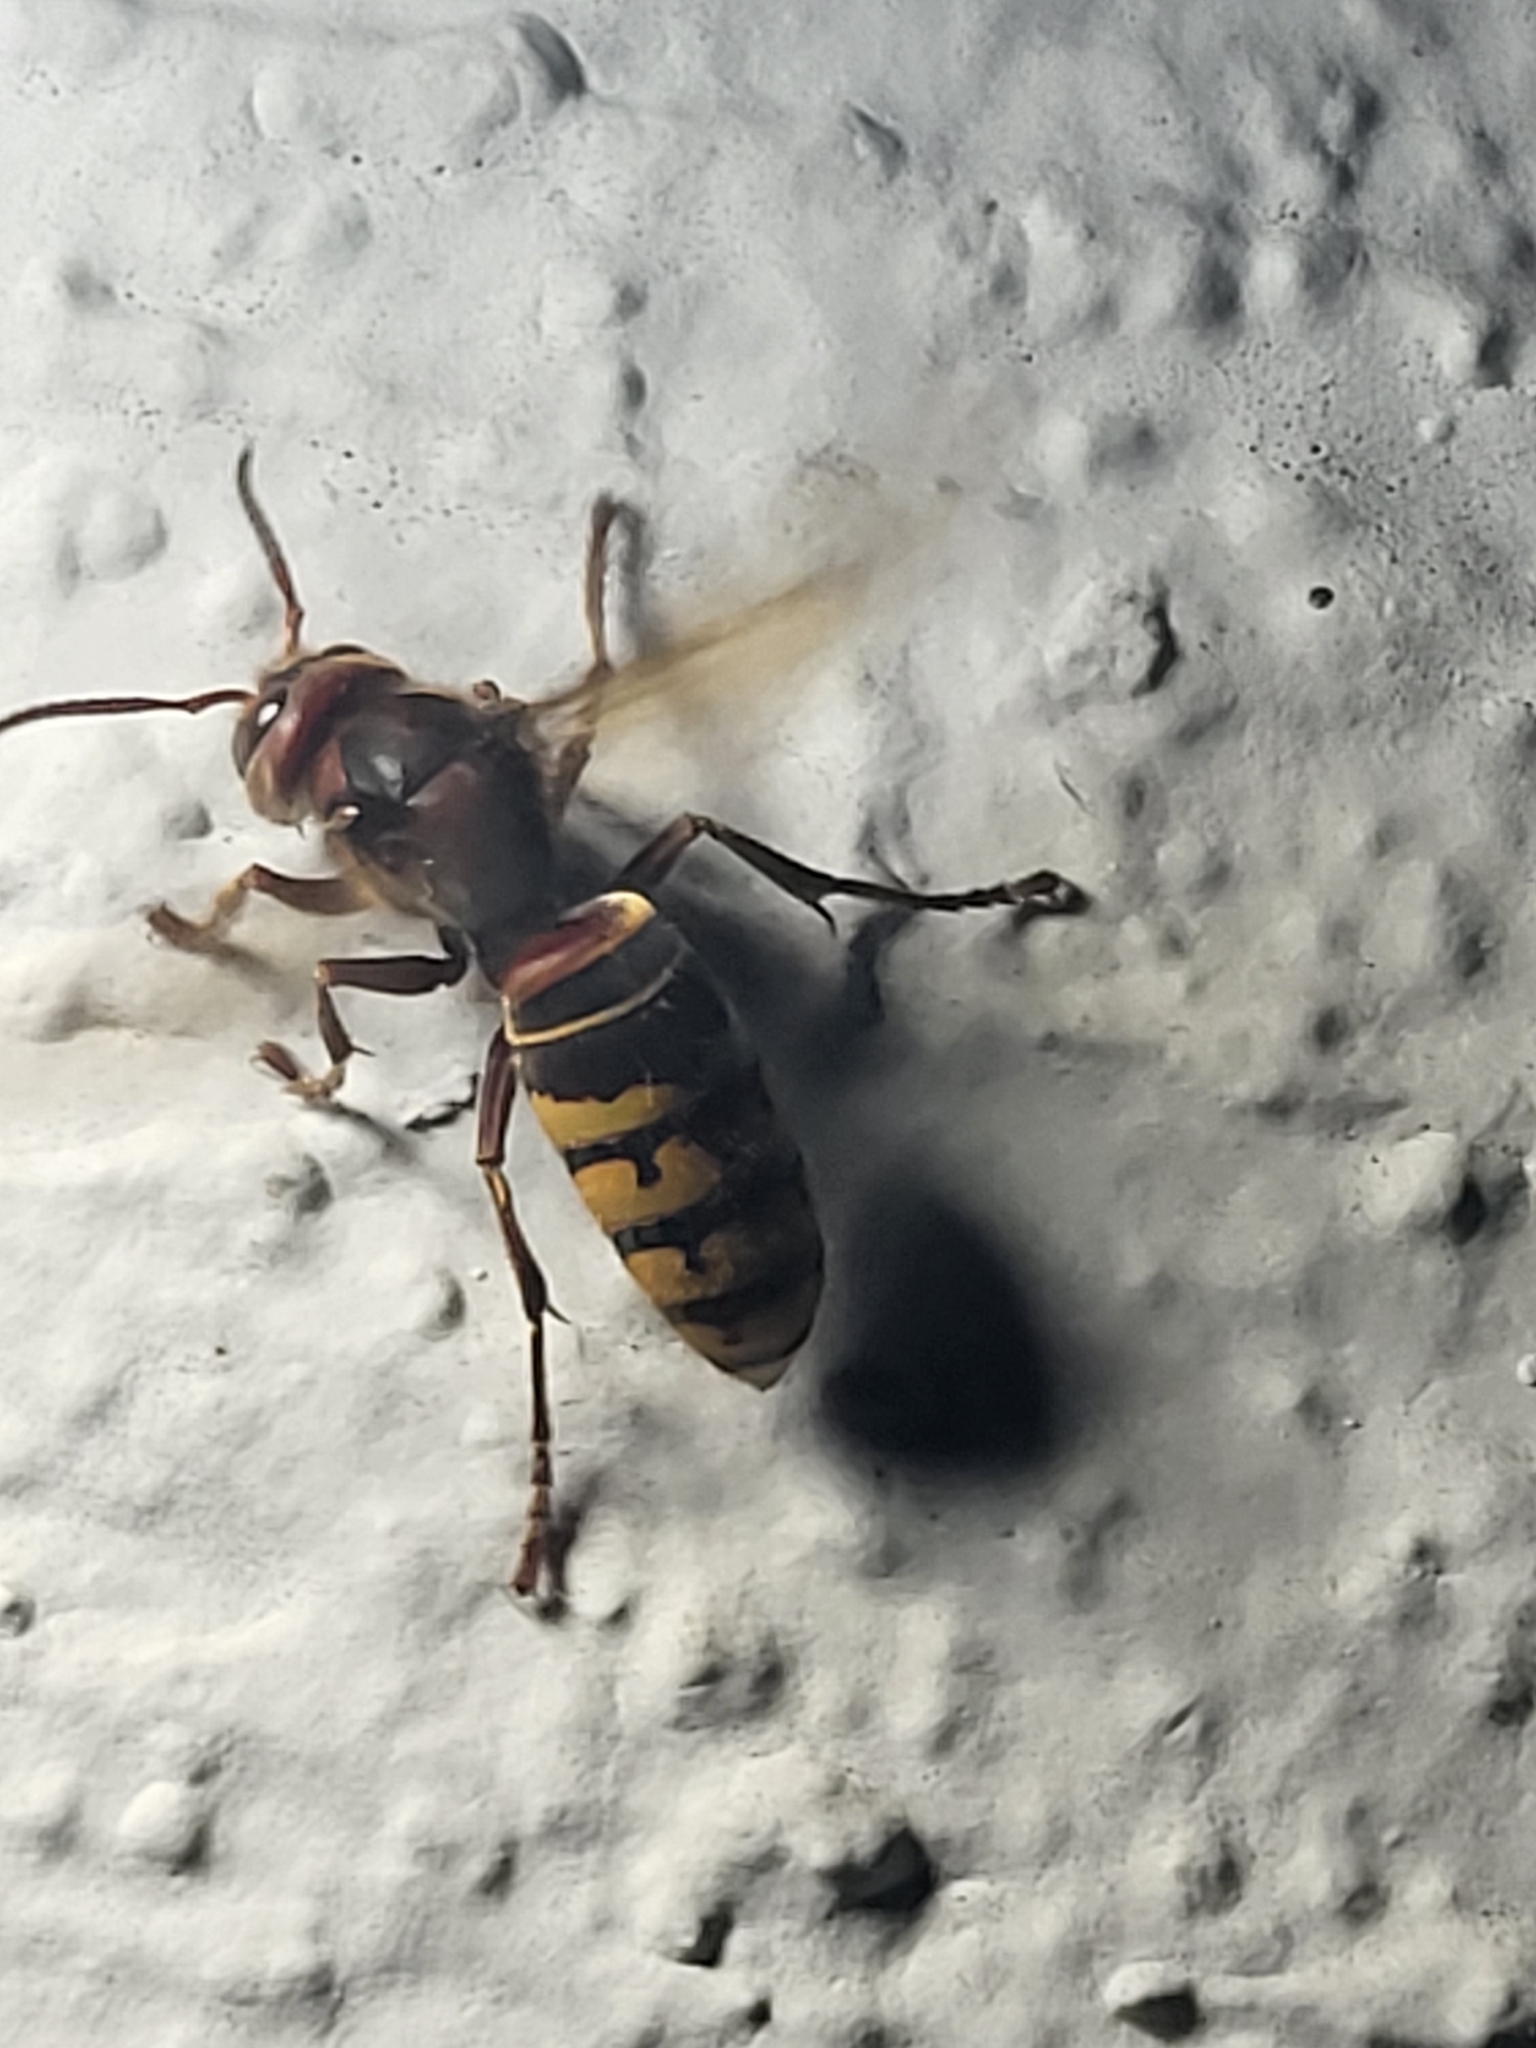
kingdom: Animalia
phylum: Arthropoda
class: Insecta
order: Hymenoptera
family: Vespidae
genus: Vespa
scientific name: Vespa crabro
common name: Hornet
